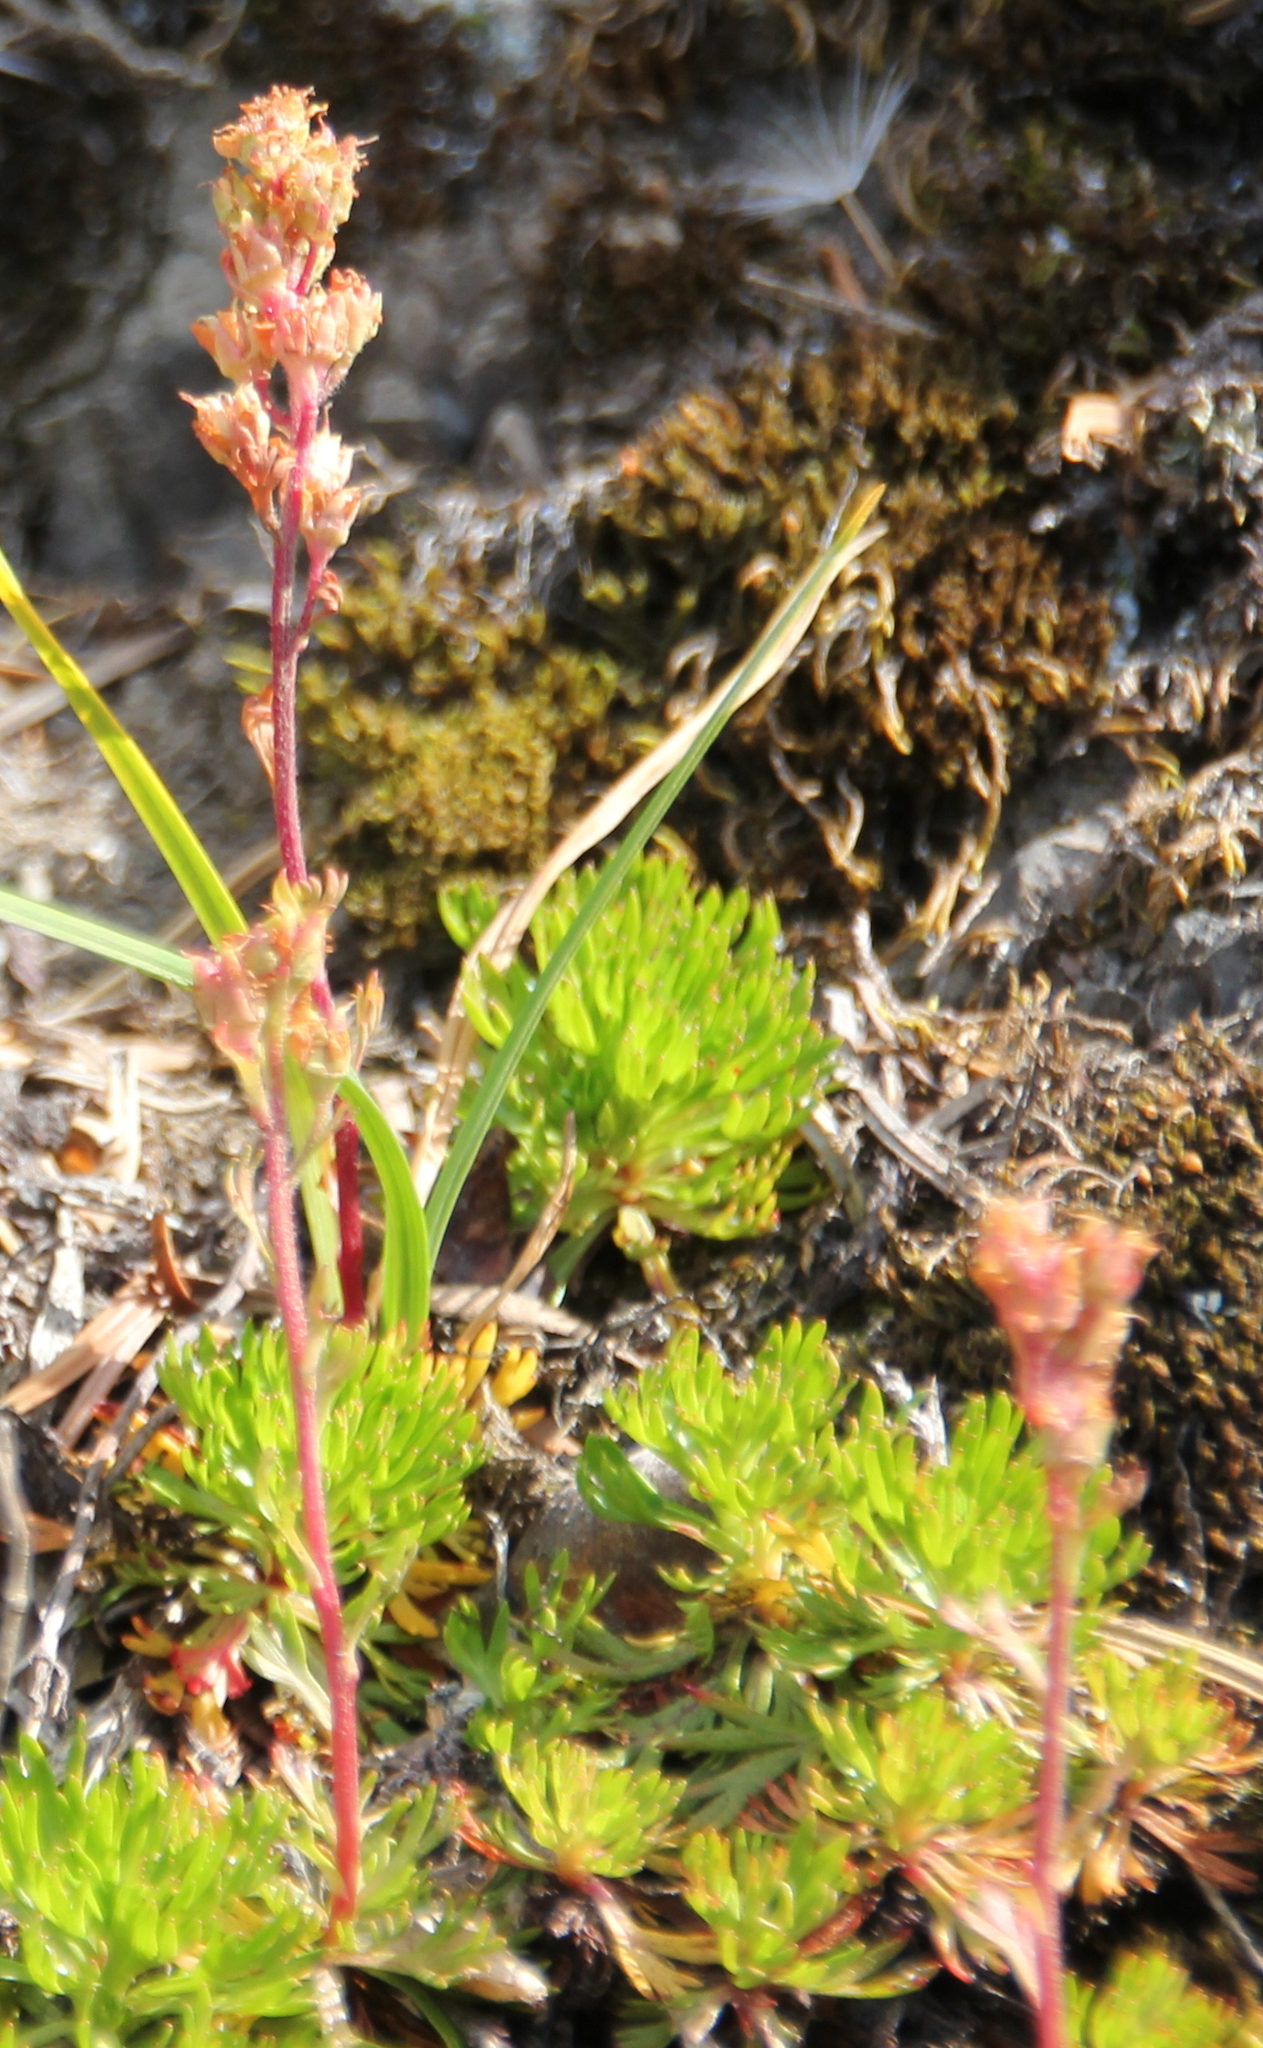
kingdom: Plantae
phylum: Tracheophyta
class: Magnoliopsida
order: Rosales
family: Rosaceae
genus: Luetkea
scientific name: Luetkea pectinata
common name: Partridgefoot
